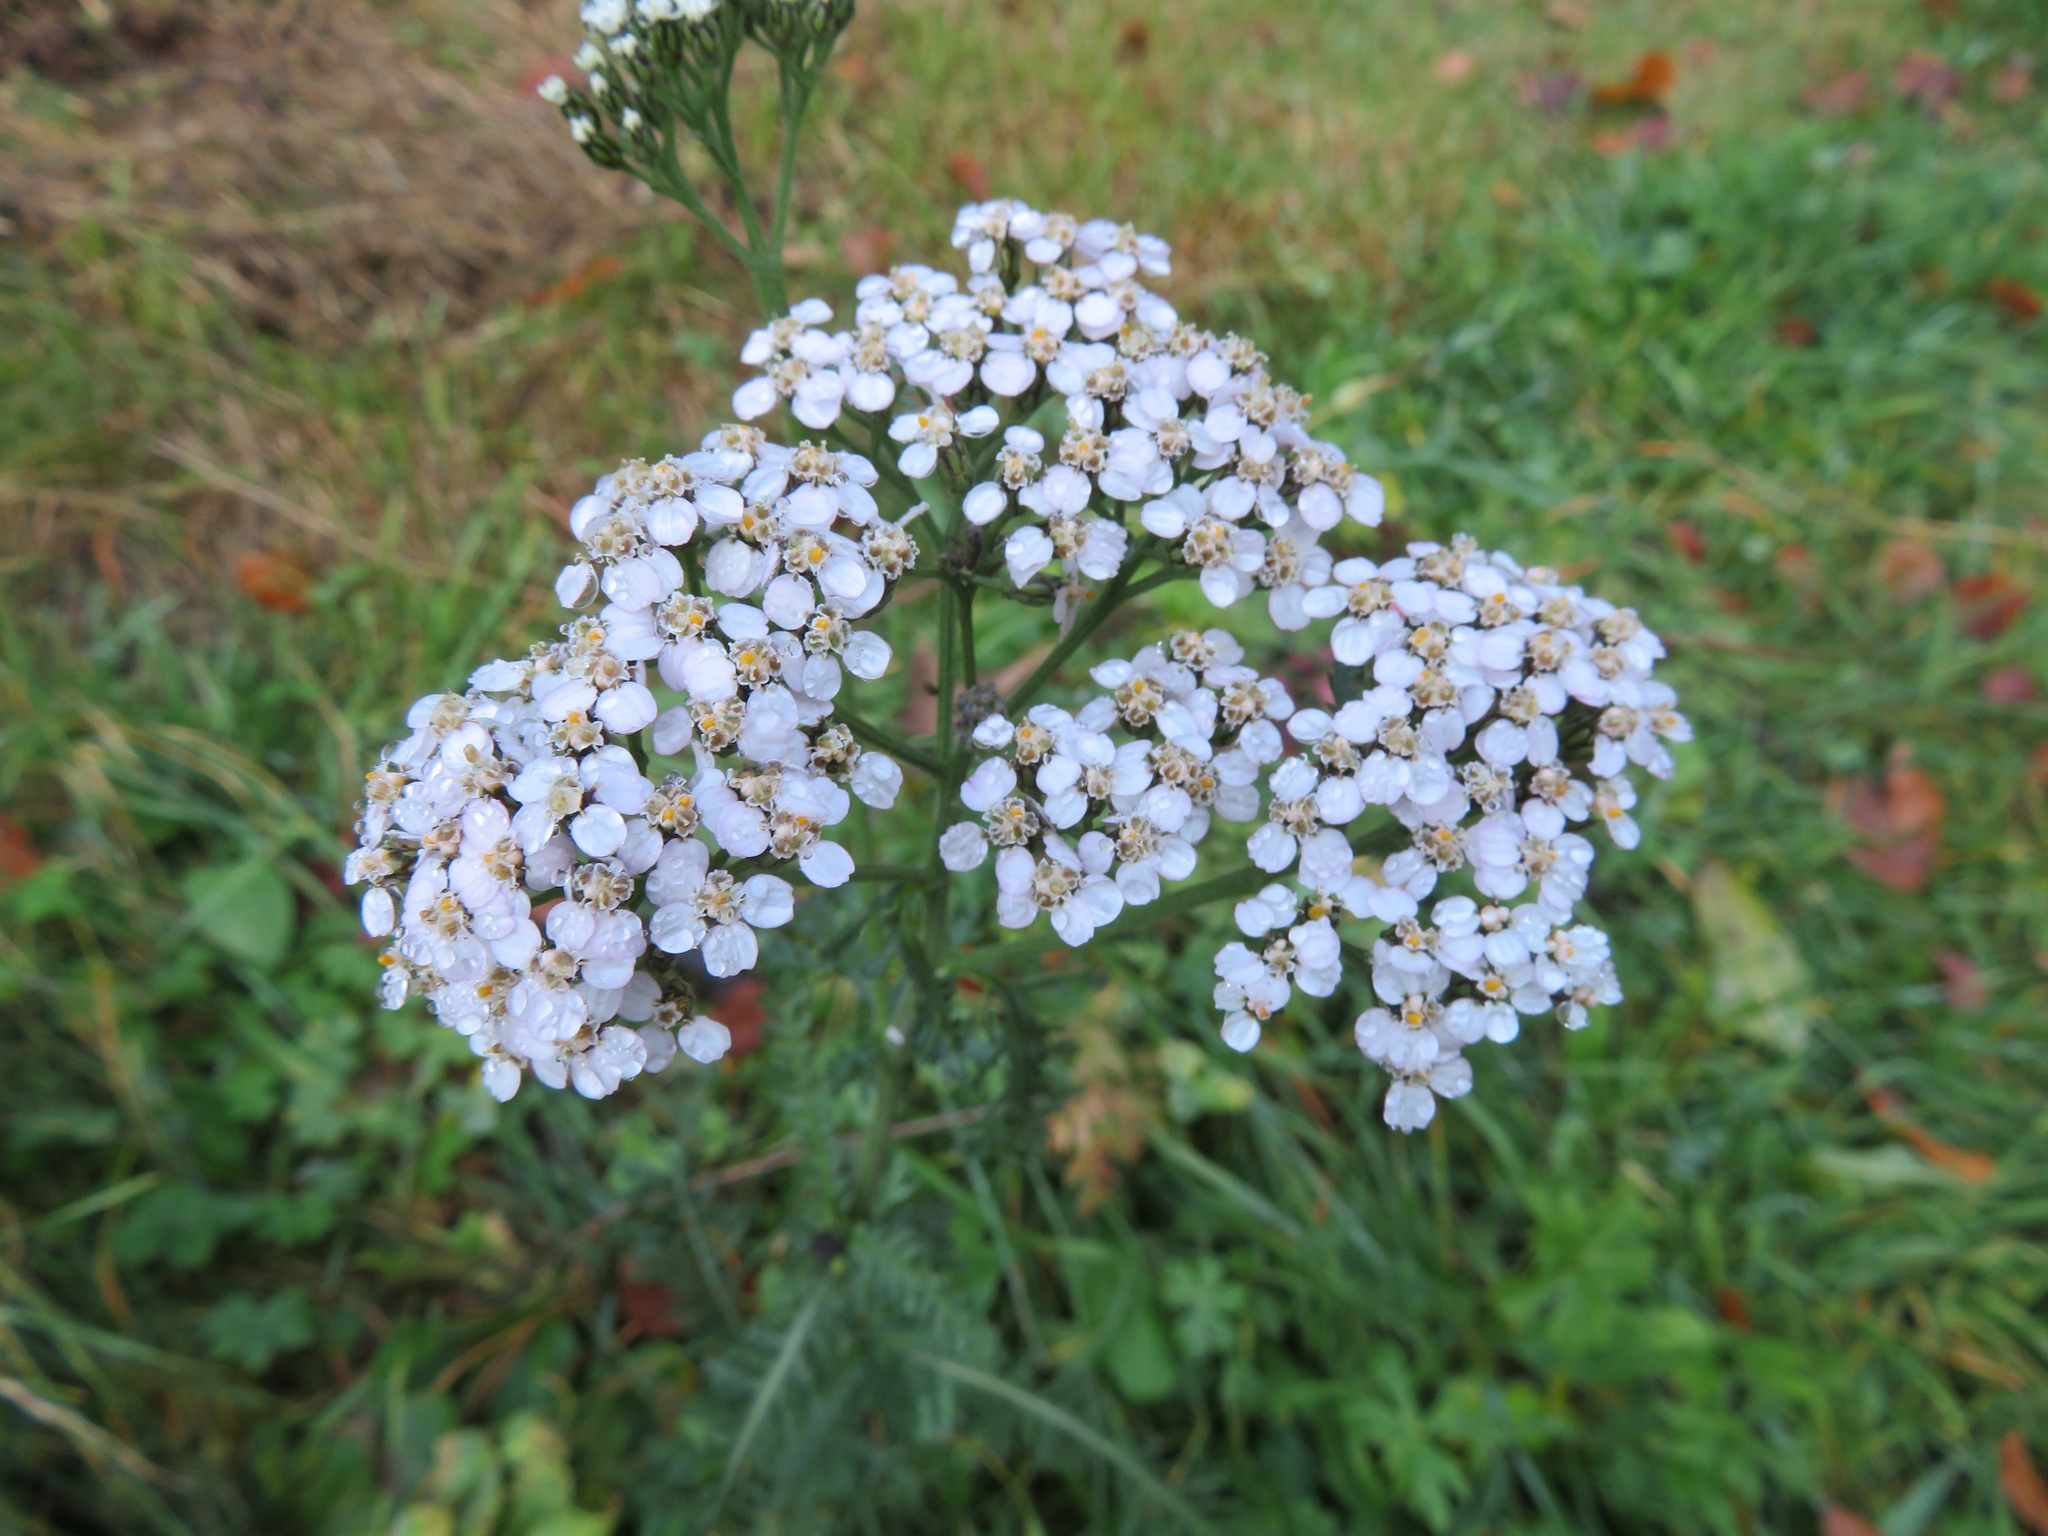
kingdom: Plantae
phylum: Tracheophyta
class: Magnoliopsida
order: Asterales
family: Asteraceae
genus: Achillea
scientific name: Achillea millefolium
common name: Yarrow
